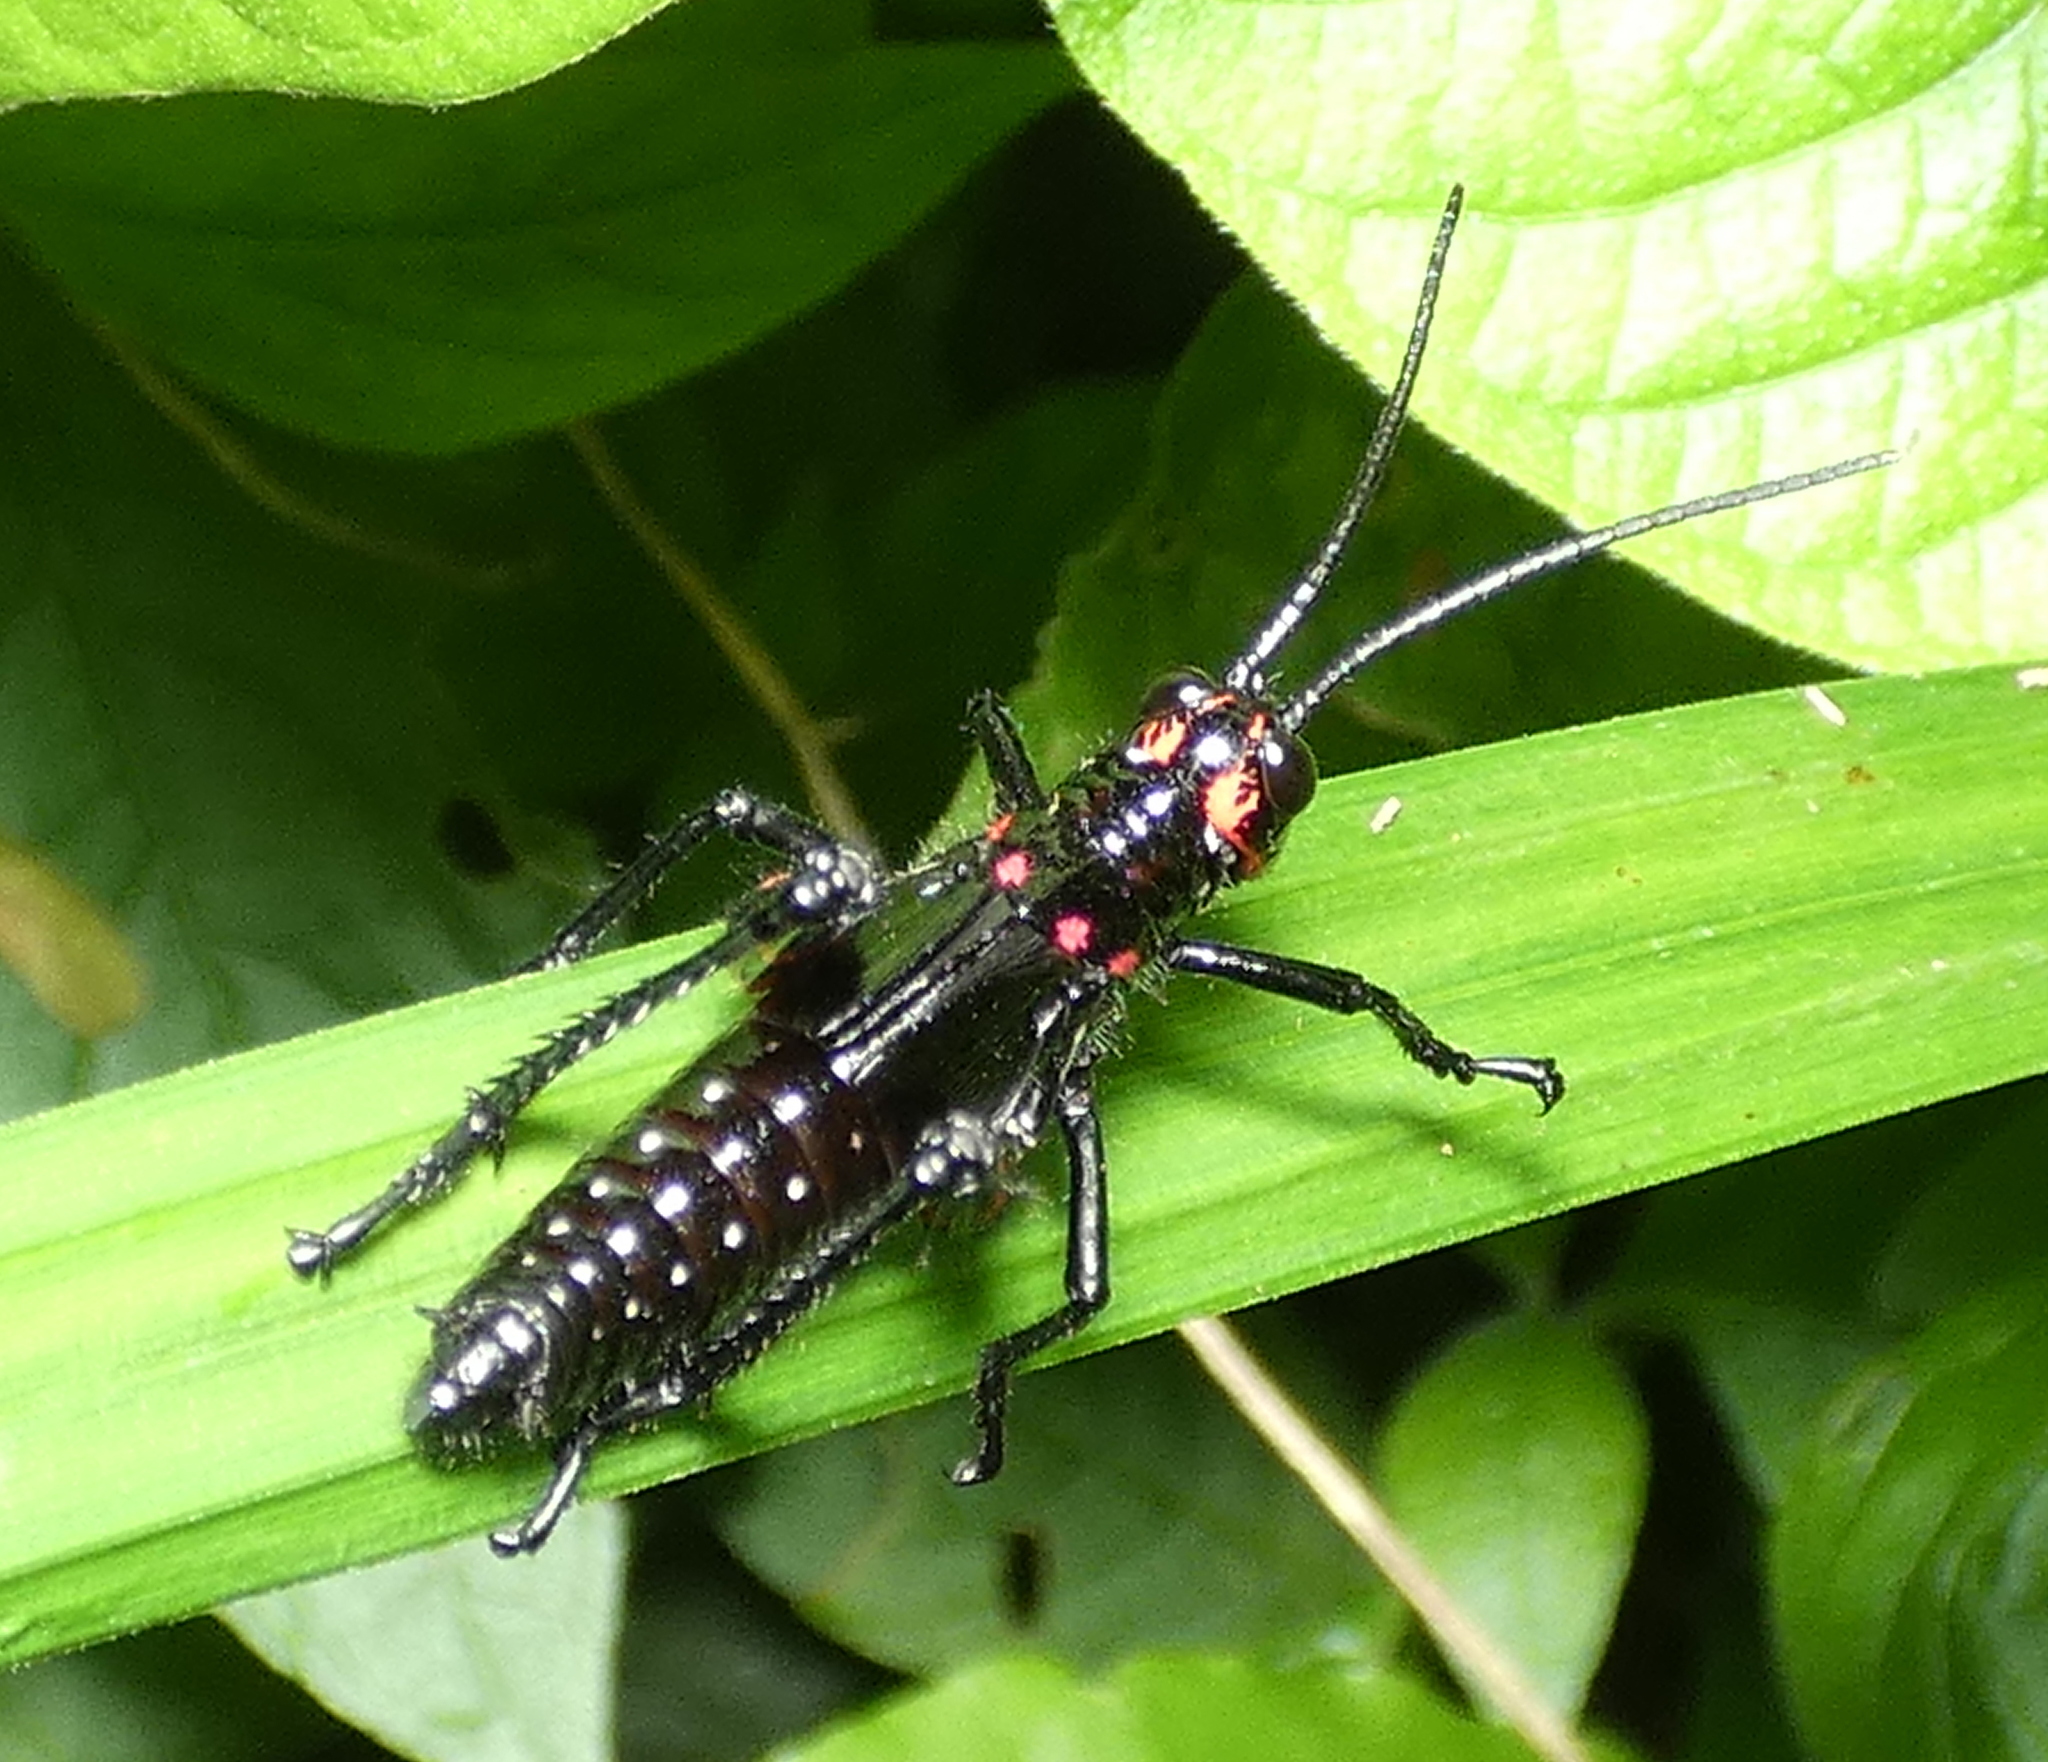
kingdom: Animalia
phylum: Arthropoda
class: Insecta
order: Orthoptera
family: Romaleidae
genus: Chromacris
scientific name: Chromacris speciosa
